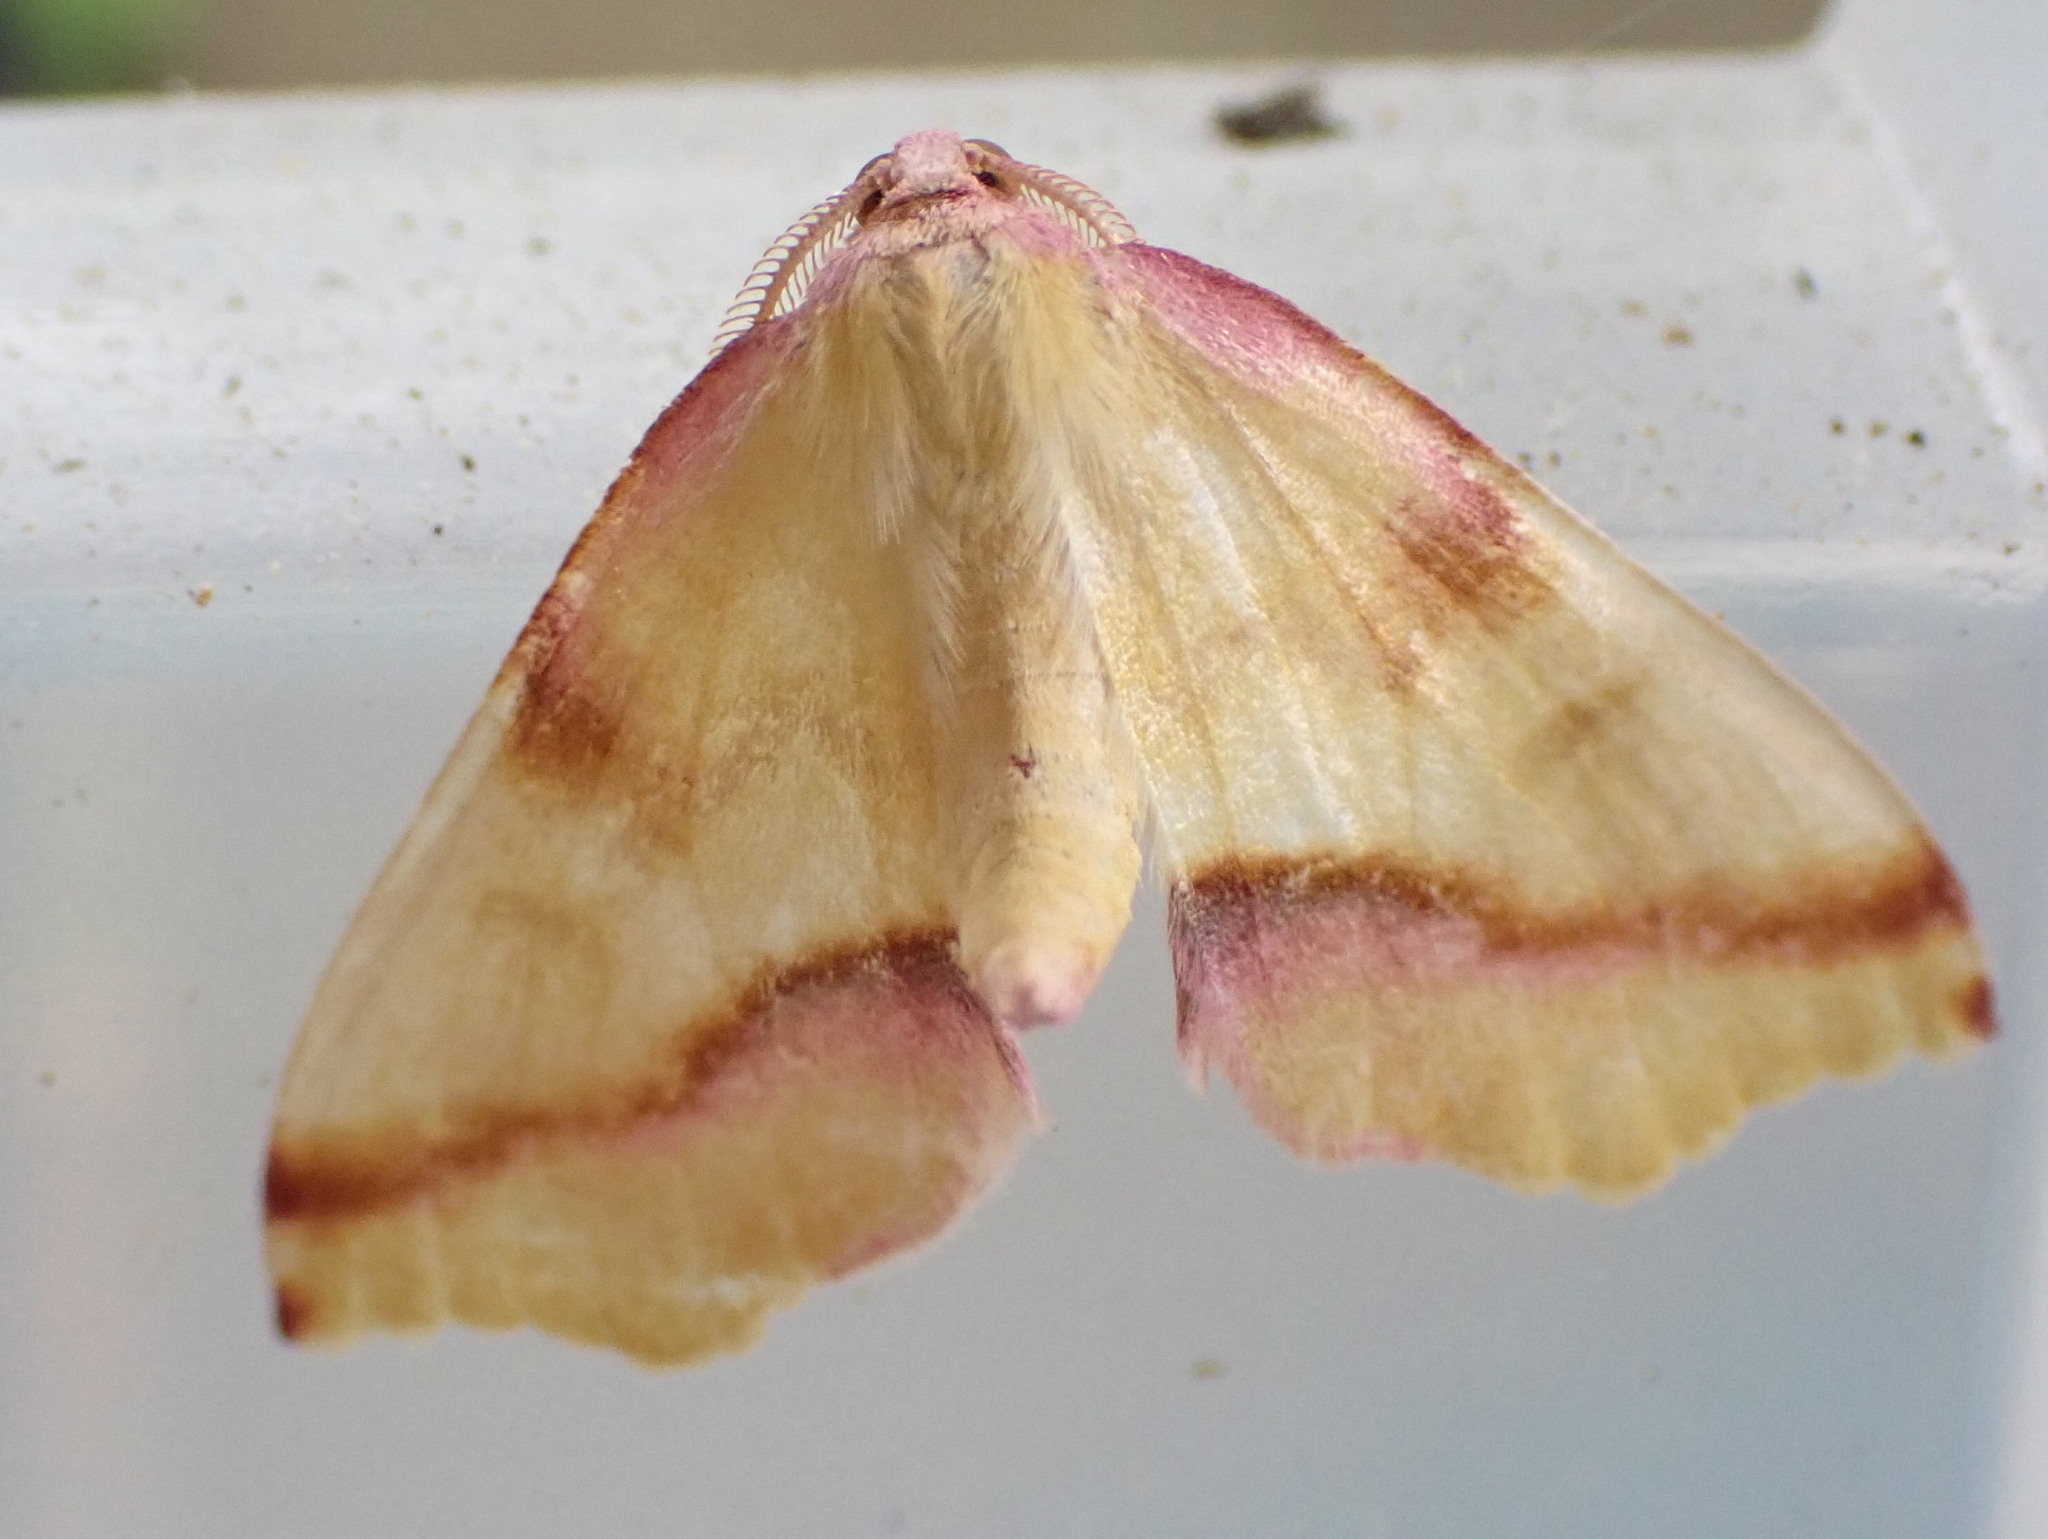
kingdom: Animalia
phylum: Arthropoda
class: Insecta
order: Lepidoptera
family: Geometridae
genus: Plagodis
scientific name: Plagodis serinaria
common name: Lemon plagodis
